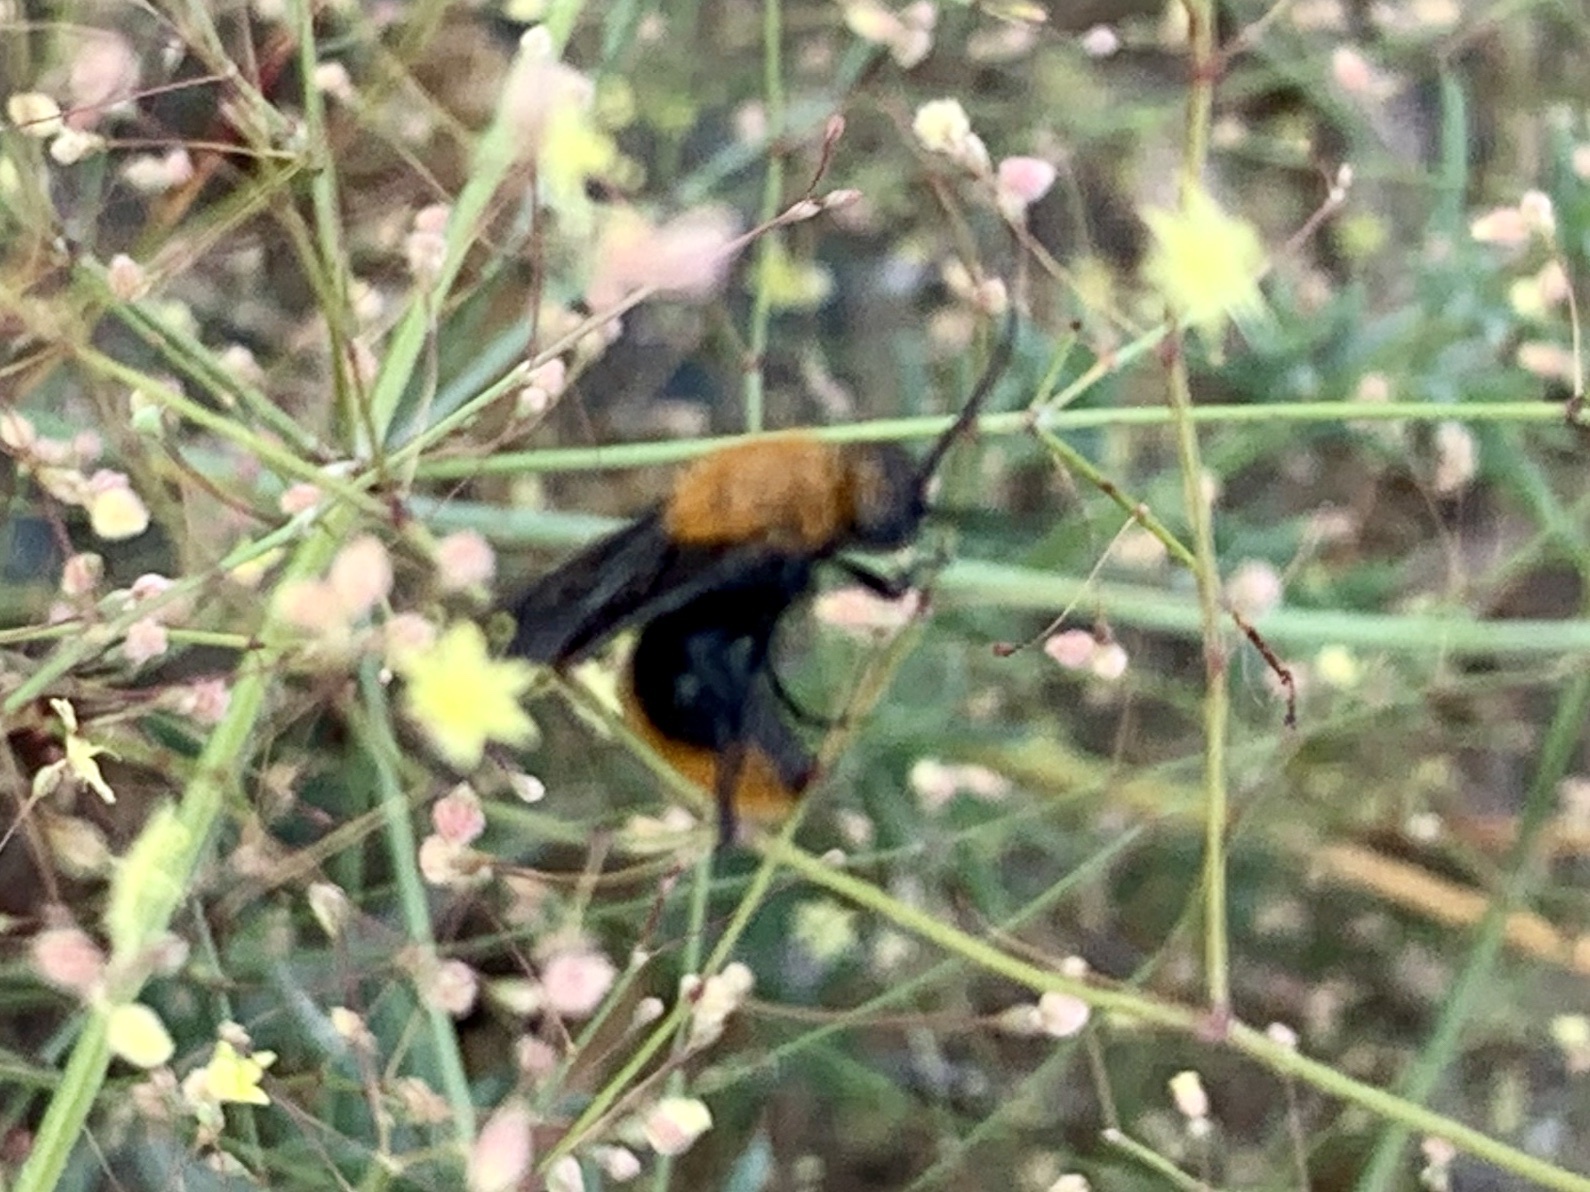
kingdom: Animalia
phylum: Arthropoda
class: Insecta
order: Hymenoptera
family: Mutillidae
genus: Dasymutilla
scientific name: Dasymutilla vestita
